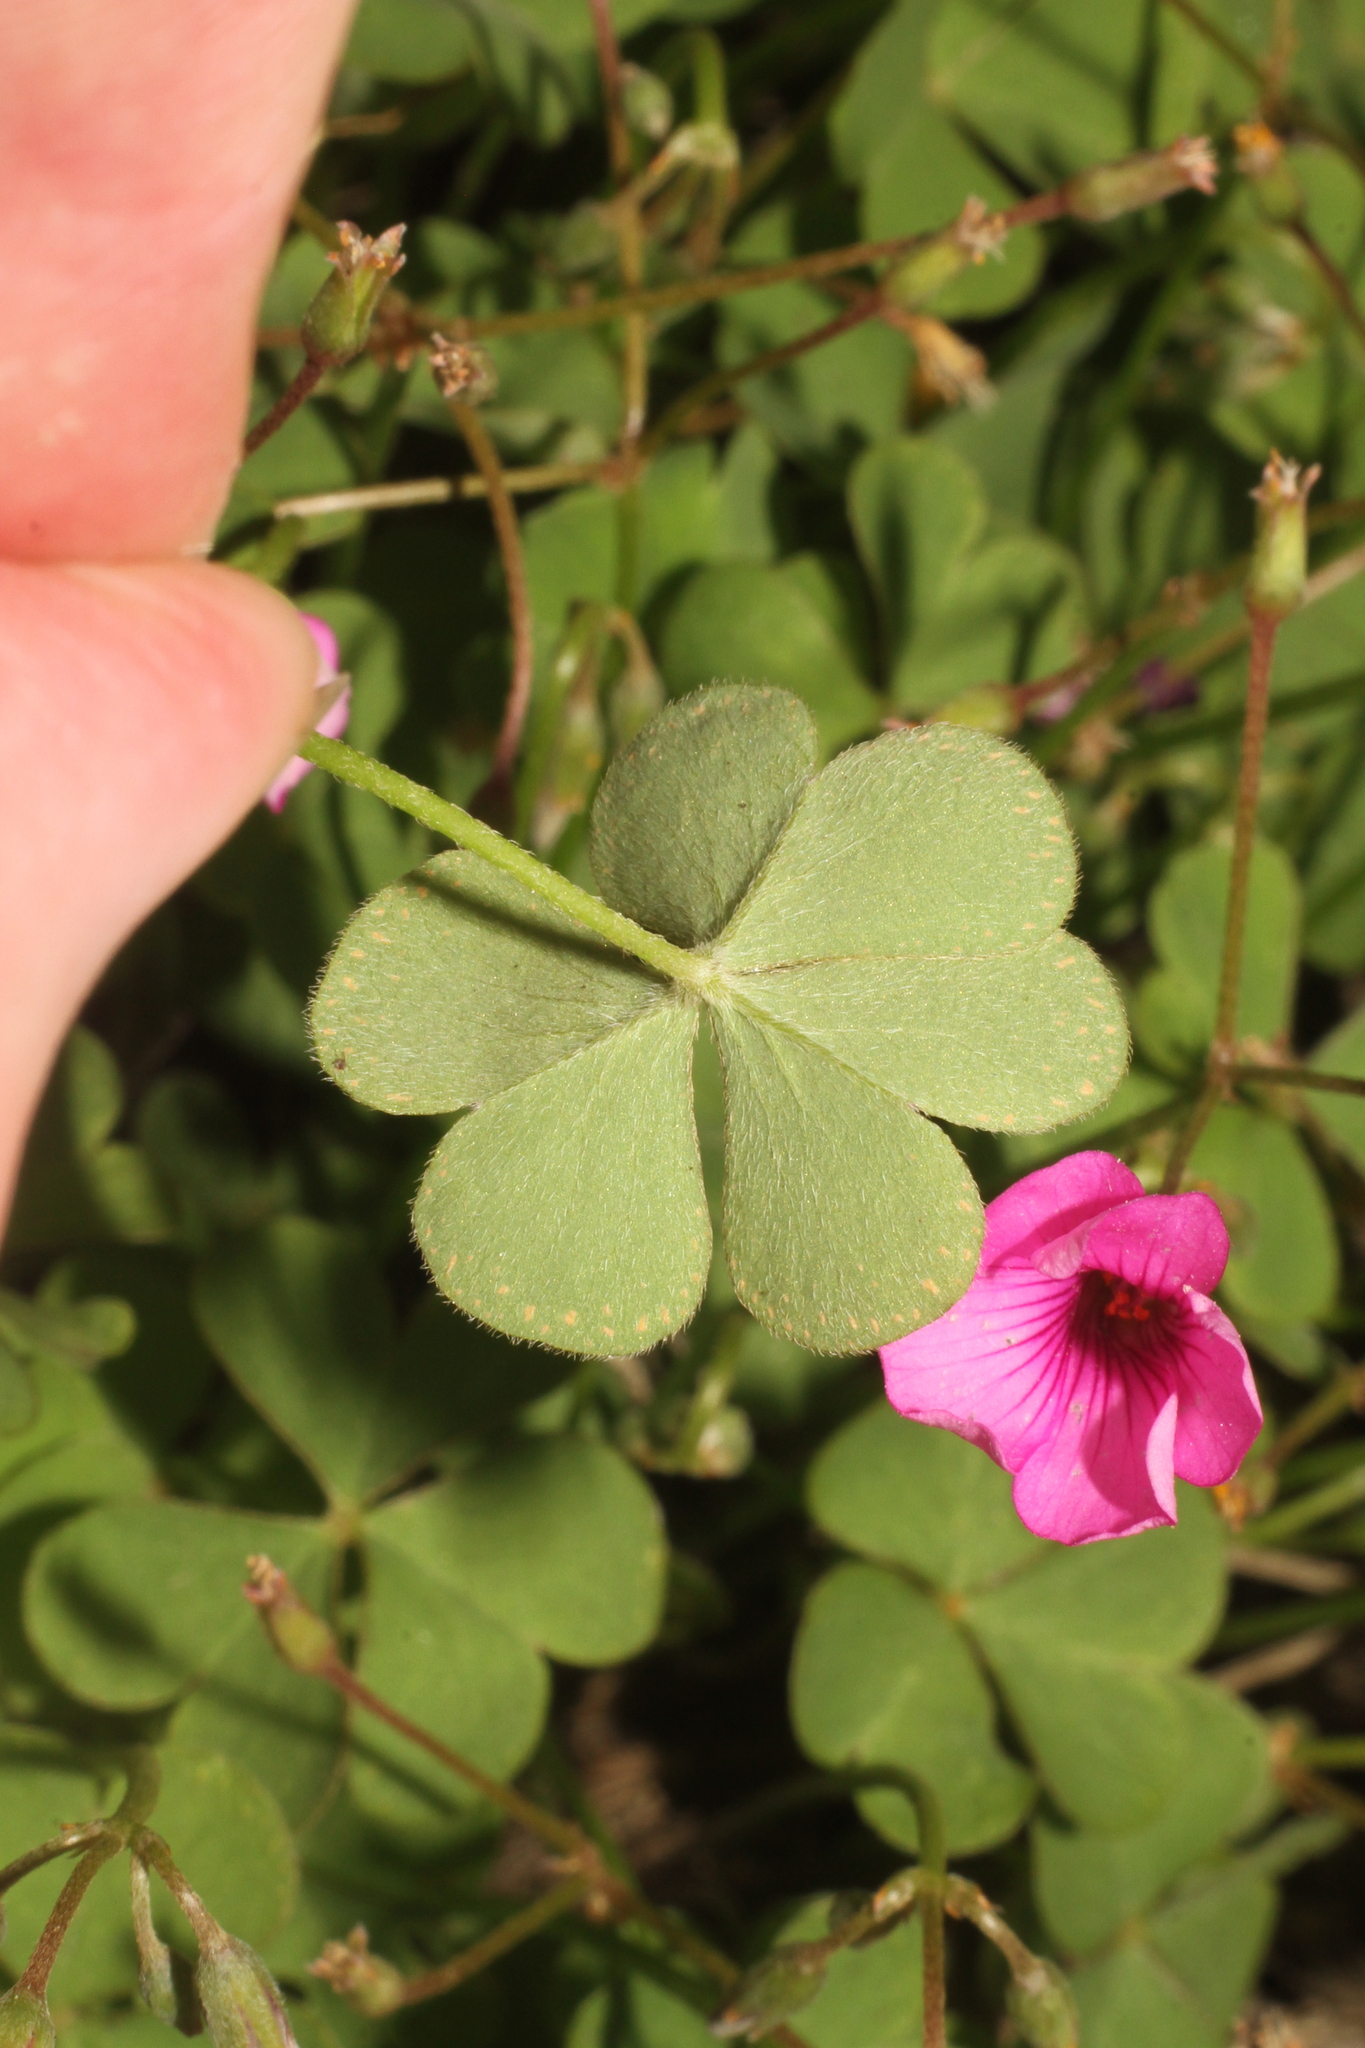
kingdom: Plantae
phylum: Tracheophyta
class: Magnoliopsida
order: Oxalidales
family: Oxalidaceae
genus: Oxalis
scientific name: Oxalis articulata
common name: Pink-sorrel
